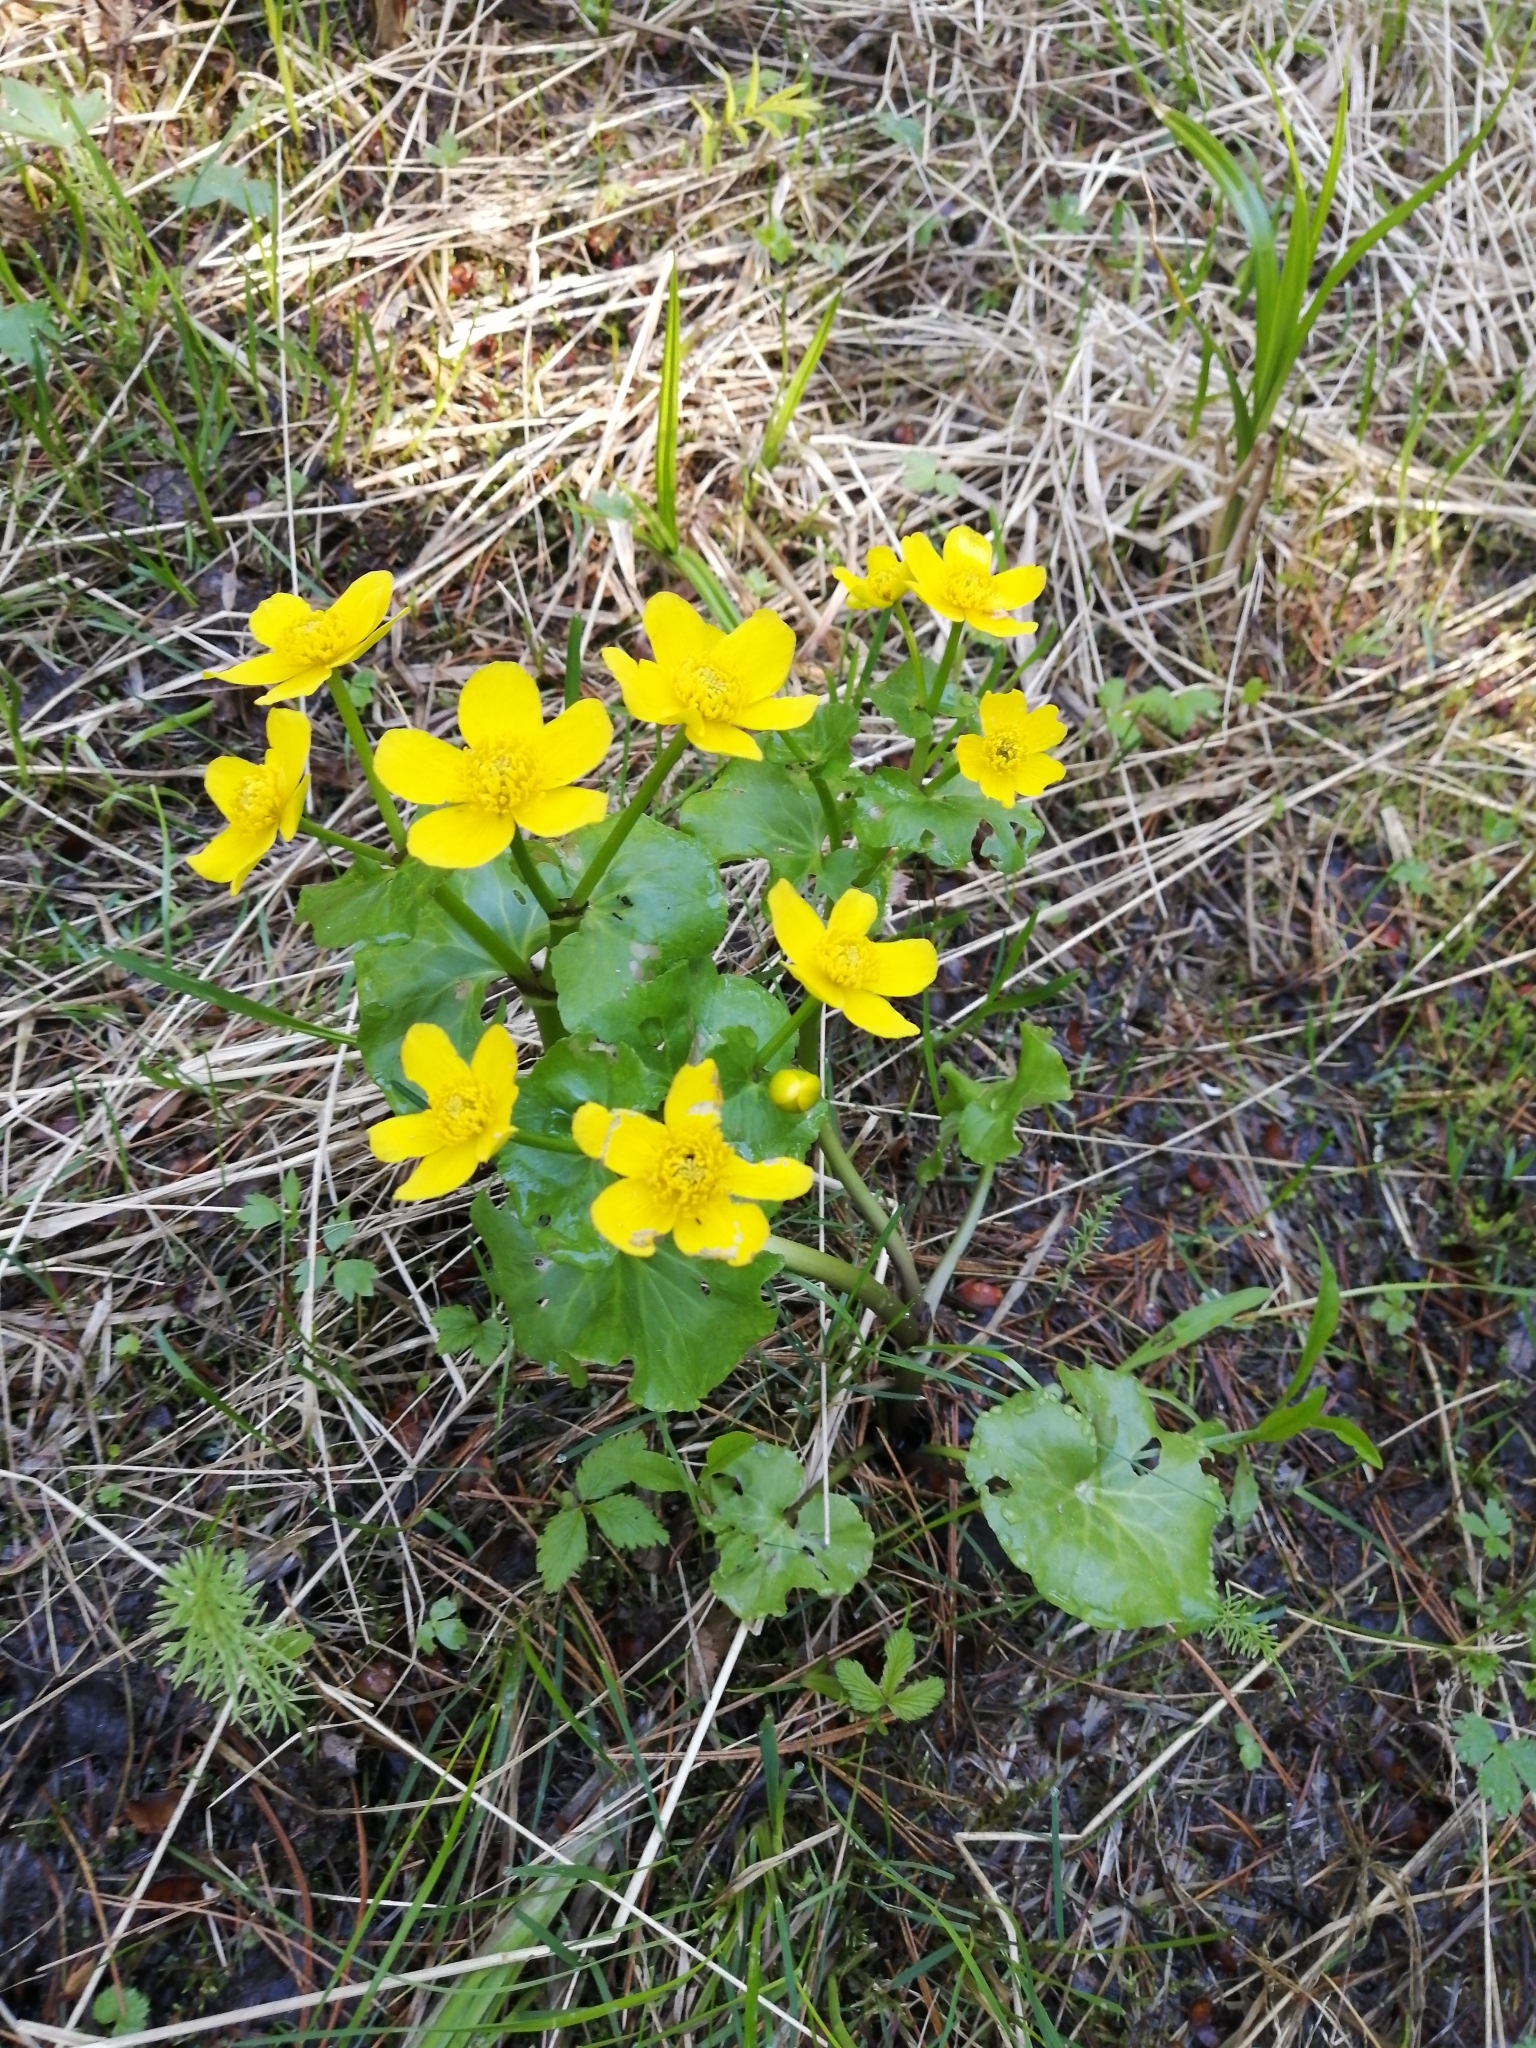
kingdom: Plantae
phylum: Tracheophyta
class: Magnoliopsida
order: Ranunculales
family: Ranunculaceae
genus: Caltha
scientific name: Caltha palustris
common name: Marsh marigold
